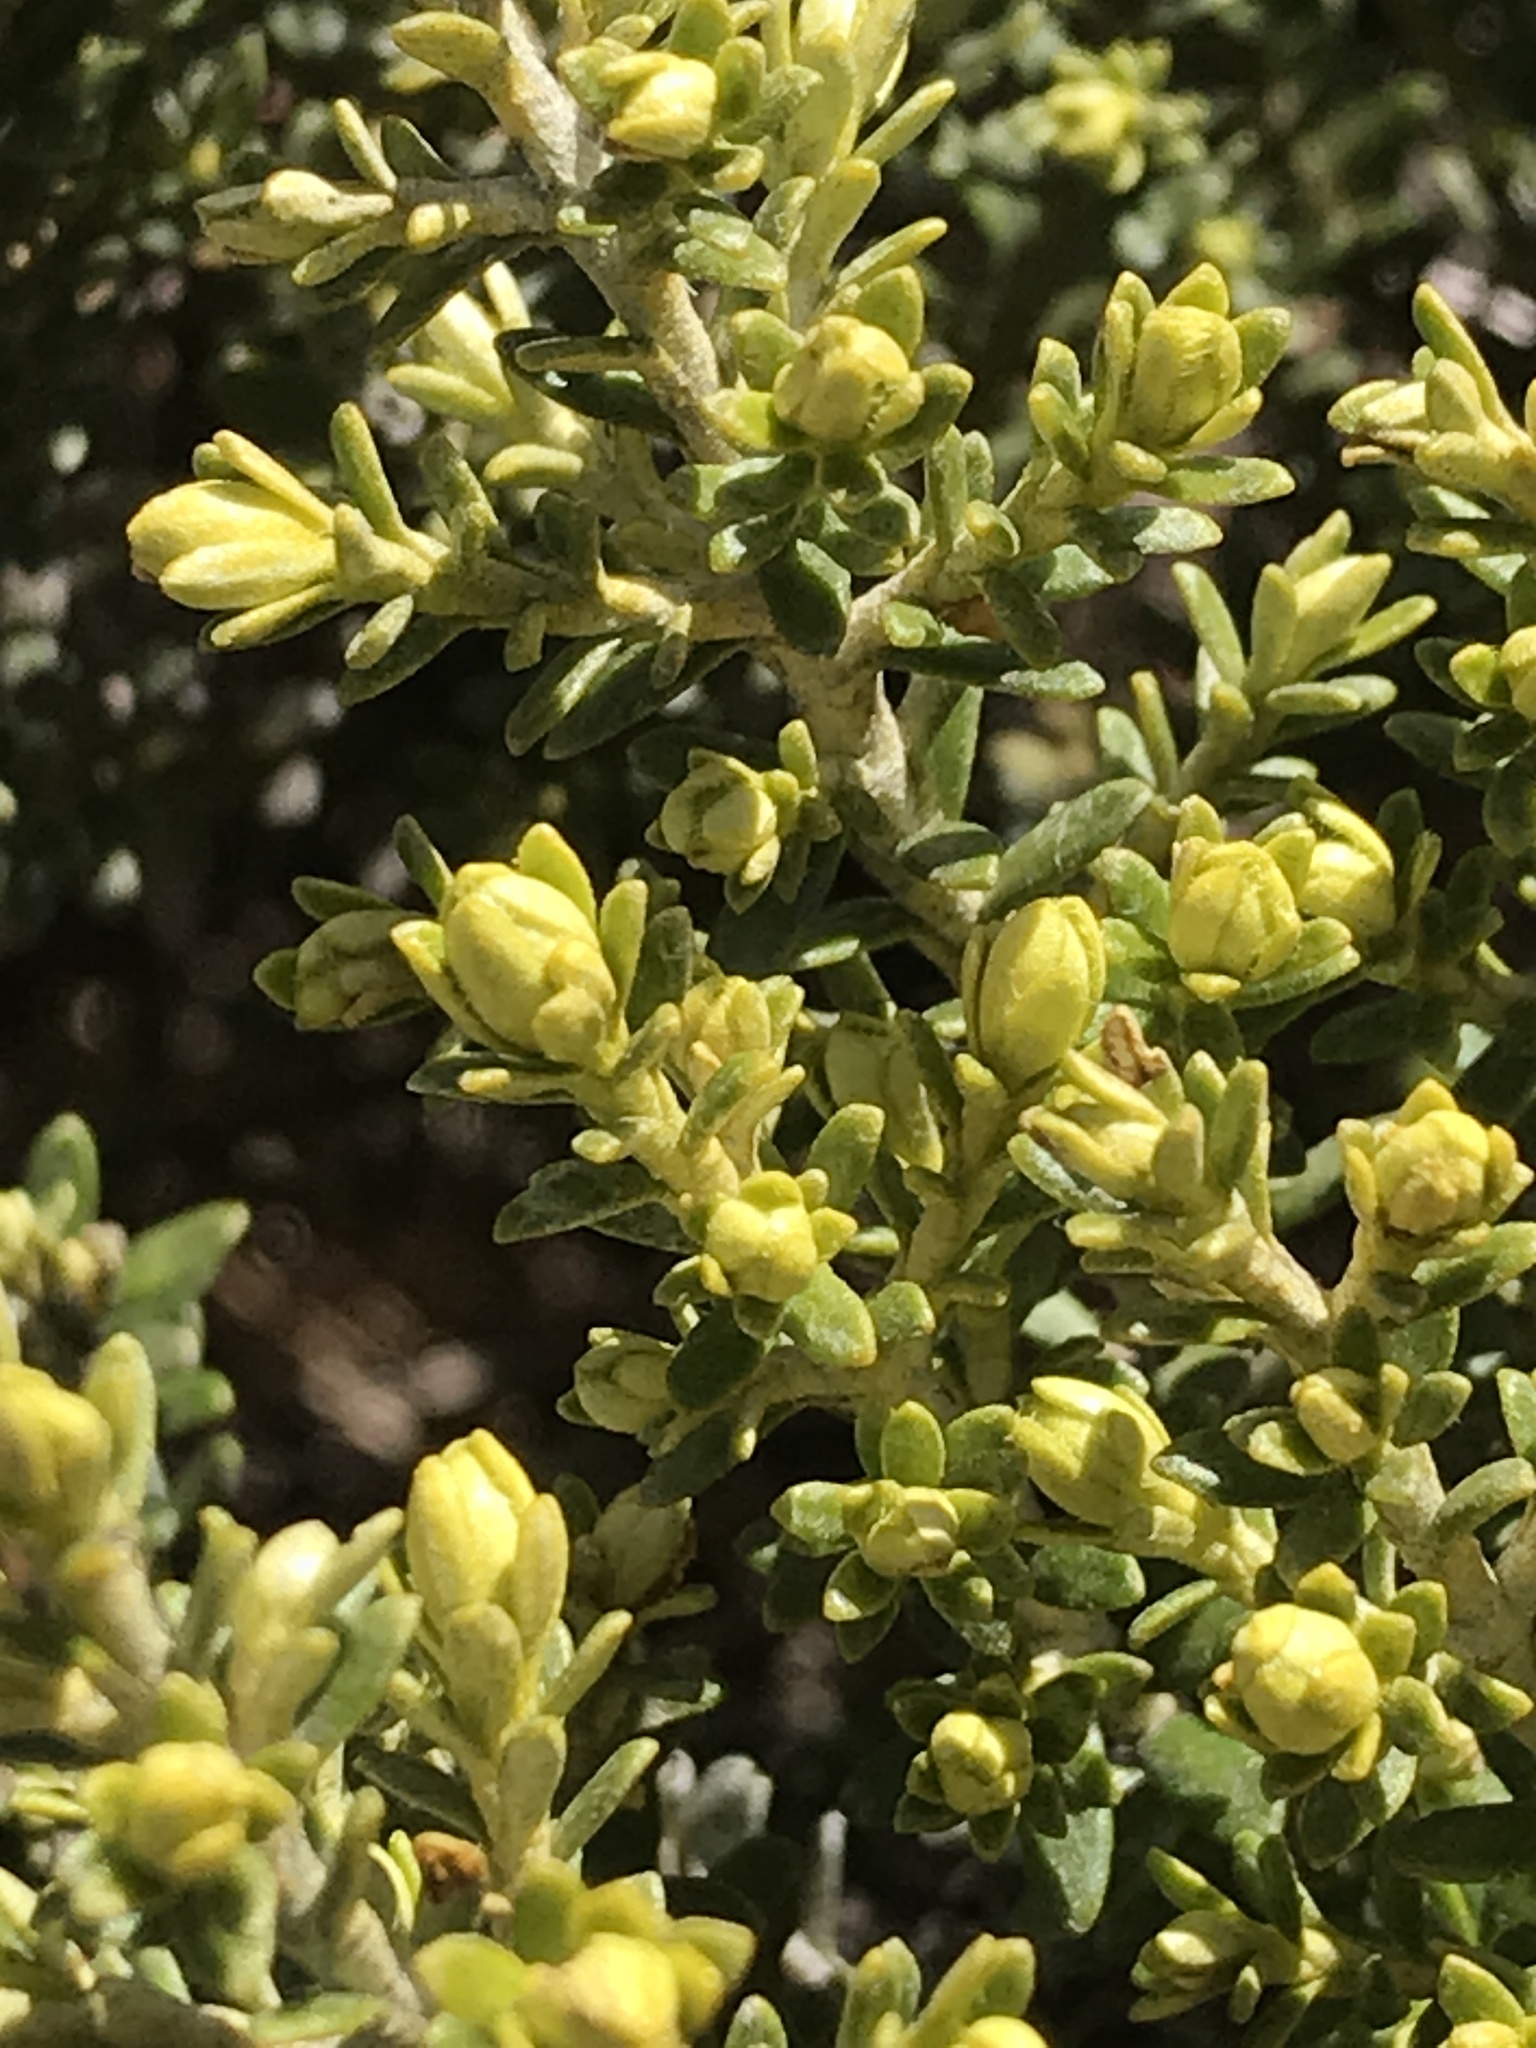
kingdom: Plantae
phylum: Tracheophyta
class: Magnoliopsida
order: Asterales
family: Asteraceae
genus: Ozothamnus
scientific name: Ozothamnus leptophyllus
